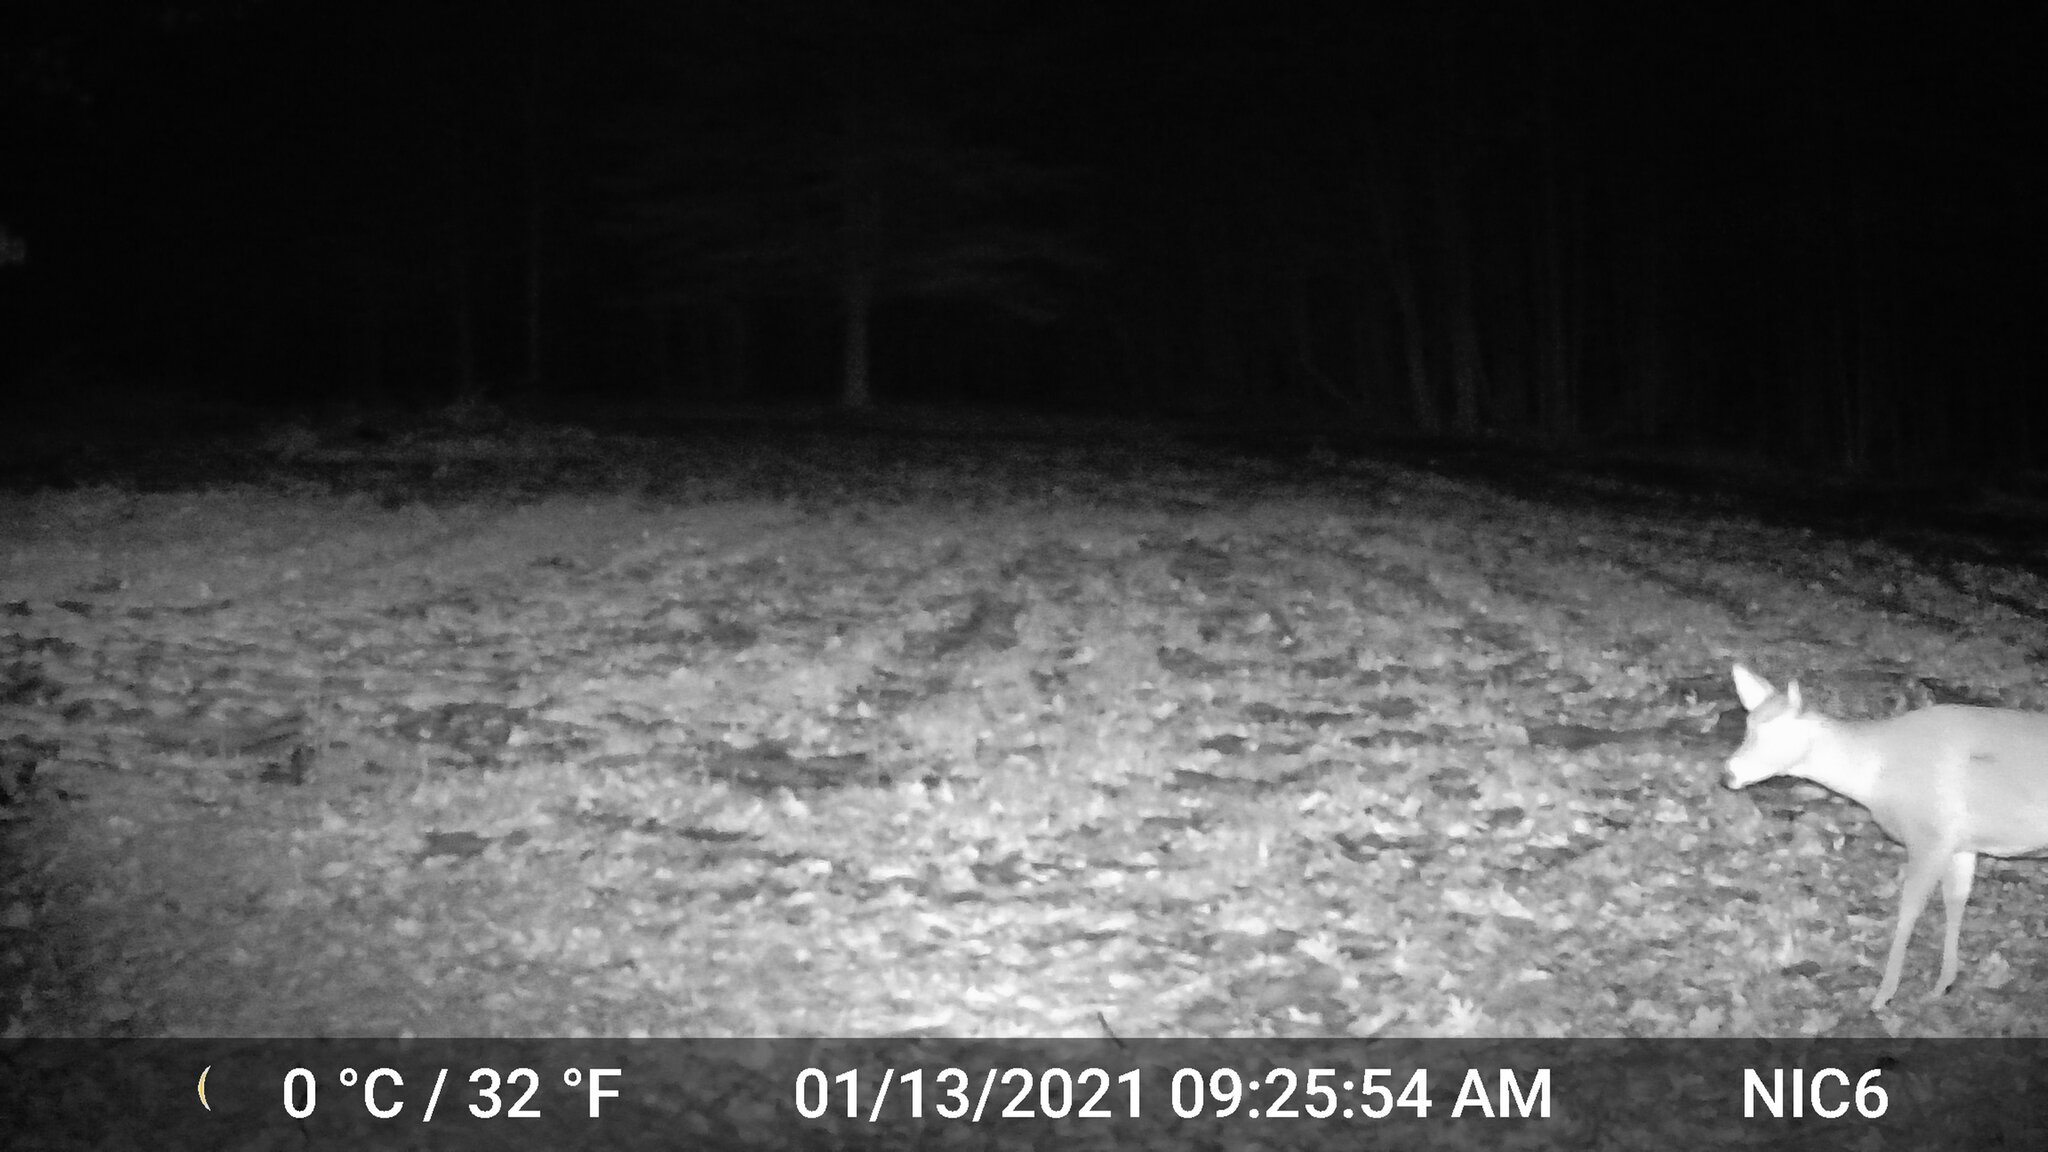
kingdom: Animalia
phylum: Chordata
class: Mammalia
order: Artiodactyla
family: Cervidae
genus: Odocoileus
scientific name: Odocoileus virginianus
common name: White-tailed deer
